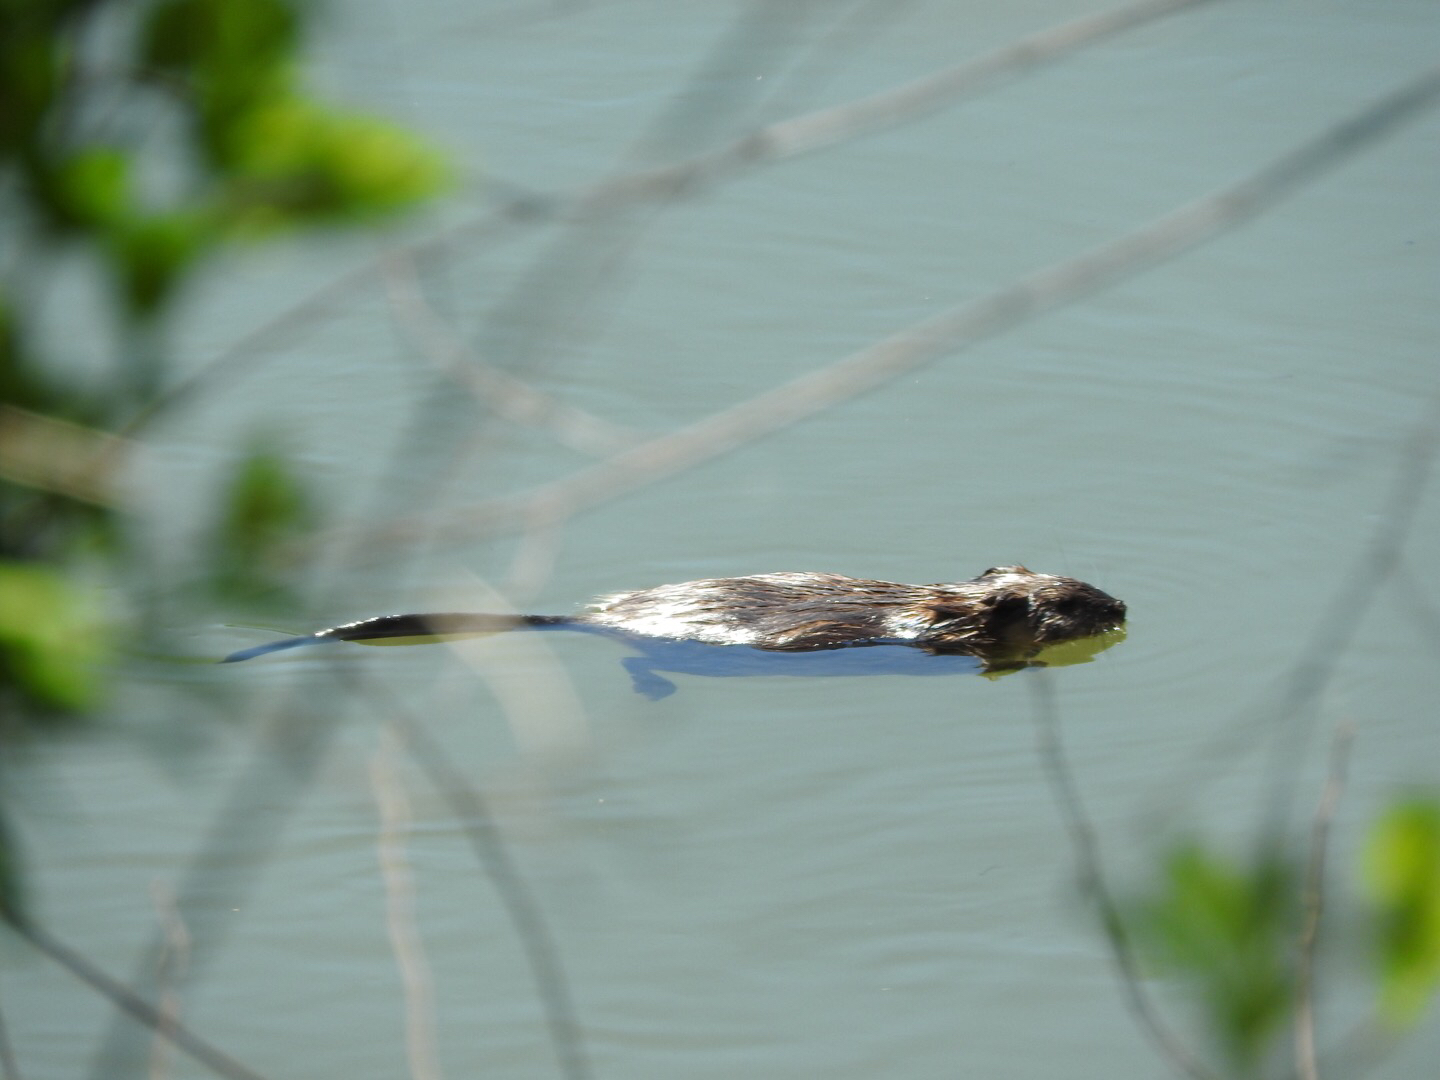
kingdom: Animalia
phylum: Chordata
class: Mammalia
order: Rodentia
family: Cricetidae
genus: Ondatra
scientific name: Ondatra zibethicus
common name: Muskrat
